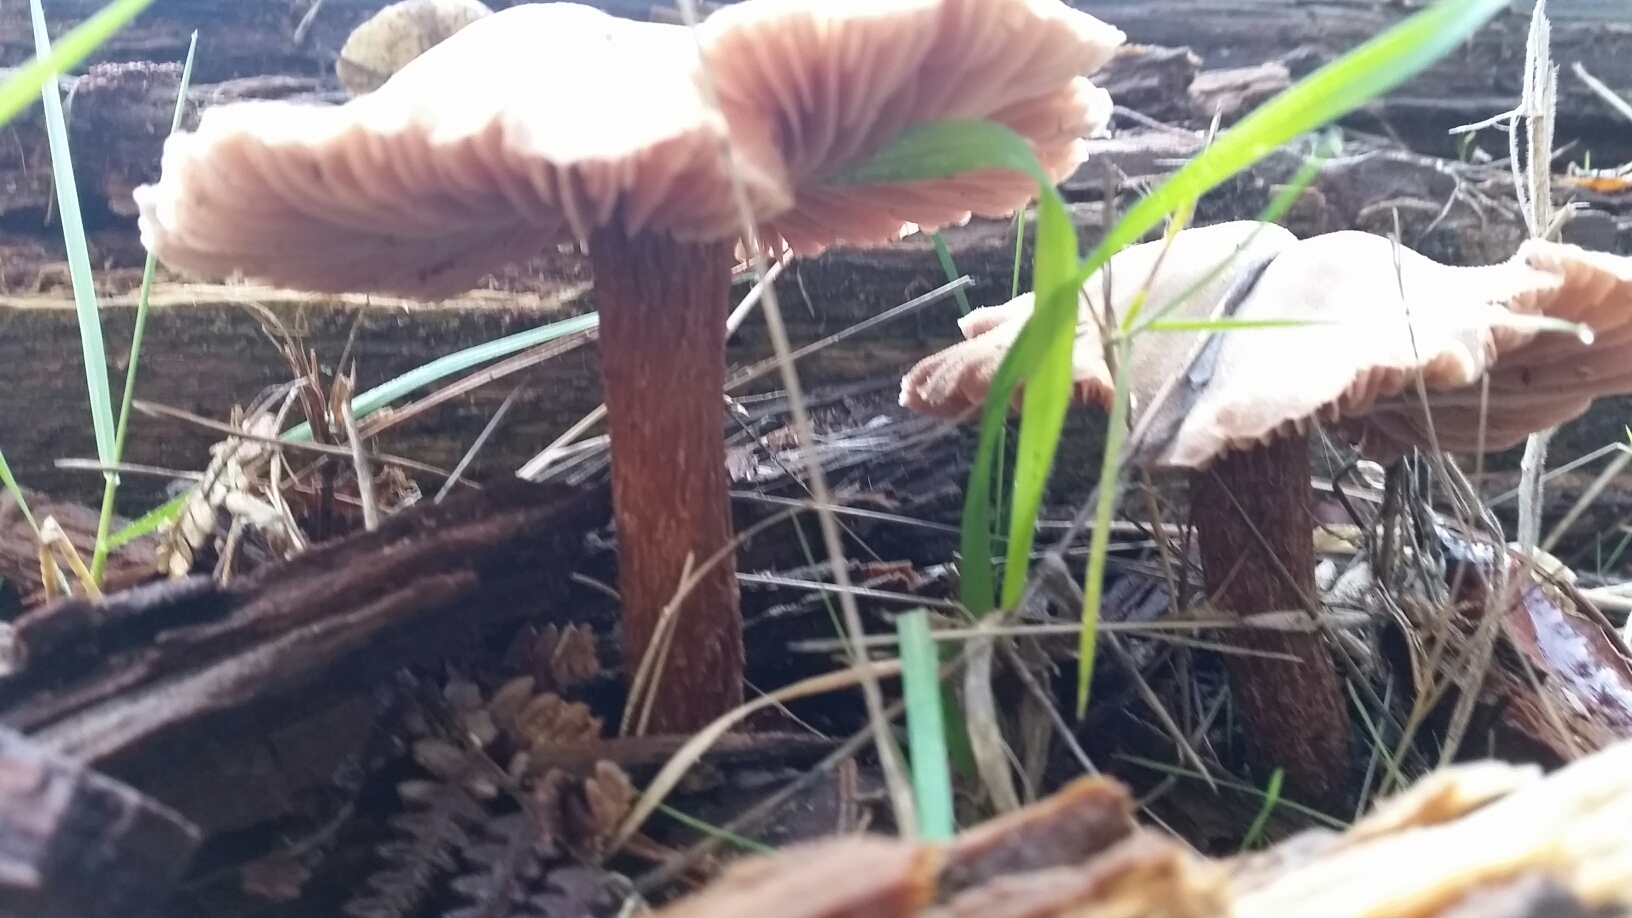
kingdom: Fungi
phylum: Basidiomycota
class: Agaricomycetes
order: Agaricales
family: Hydnangiaceae
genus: Laccaria
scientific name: Laccaria amethysteo-occidentalis
